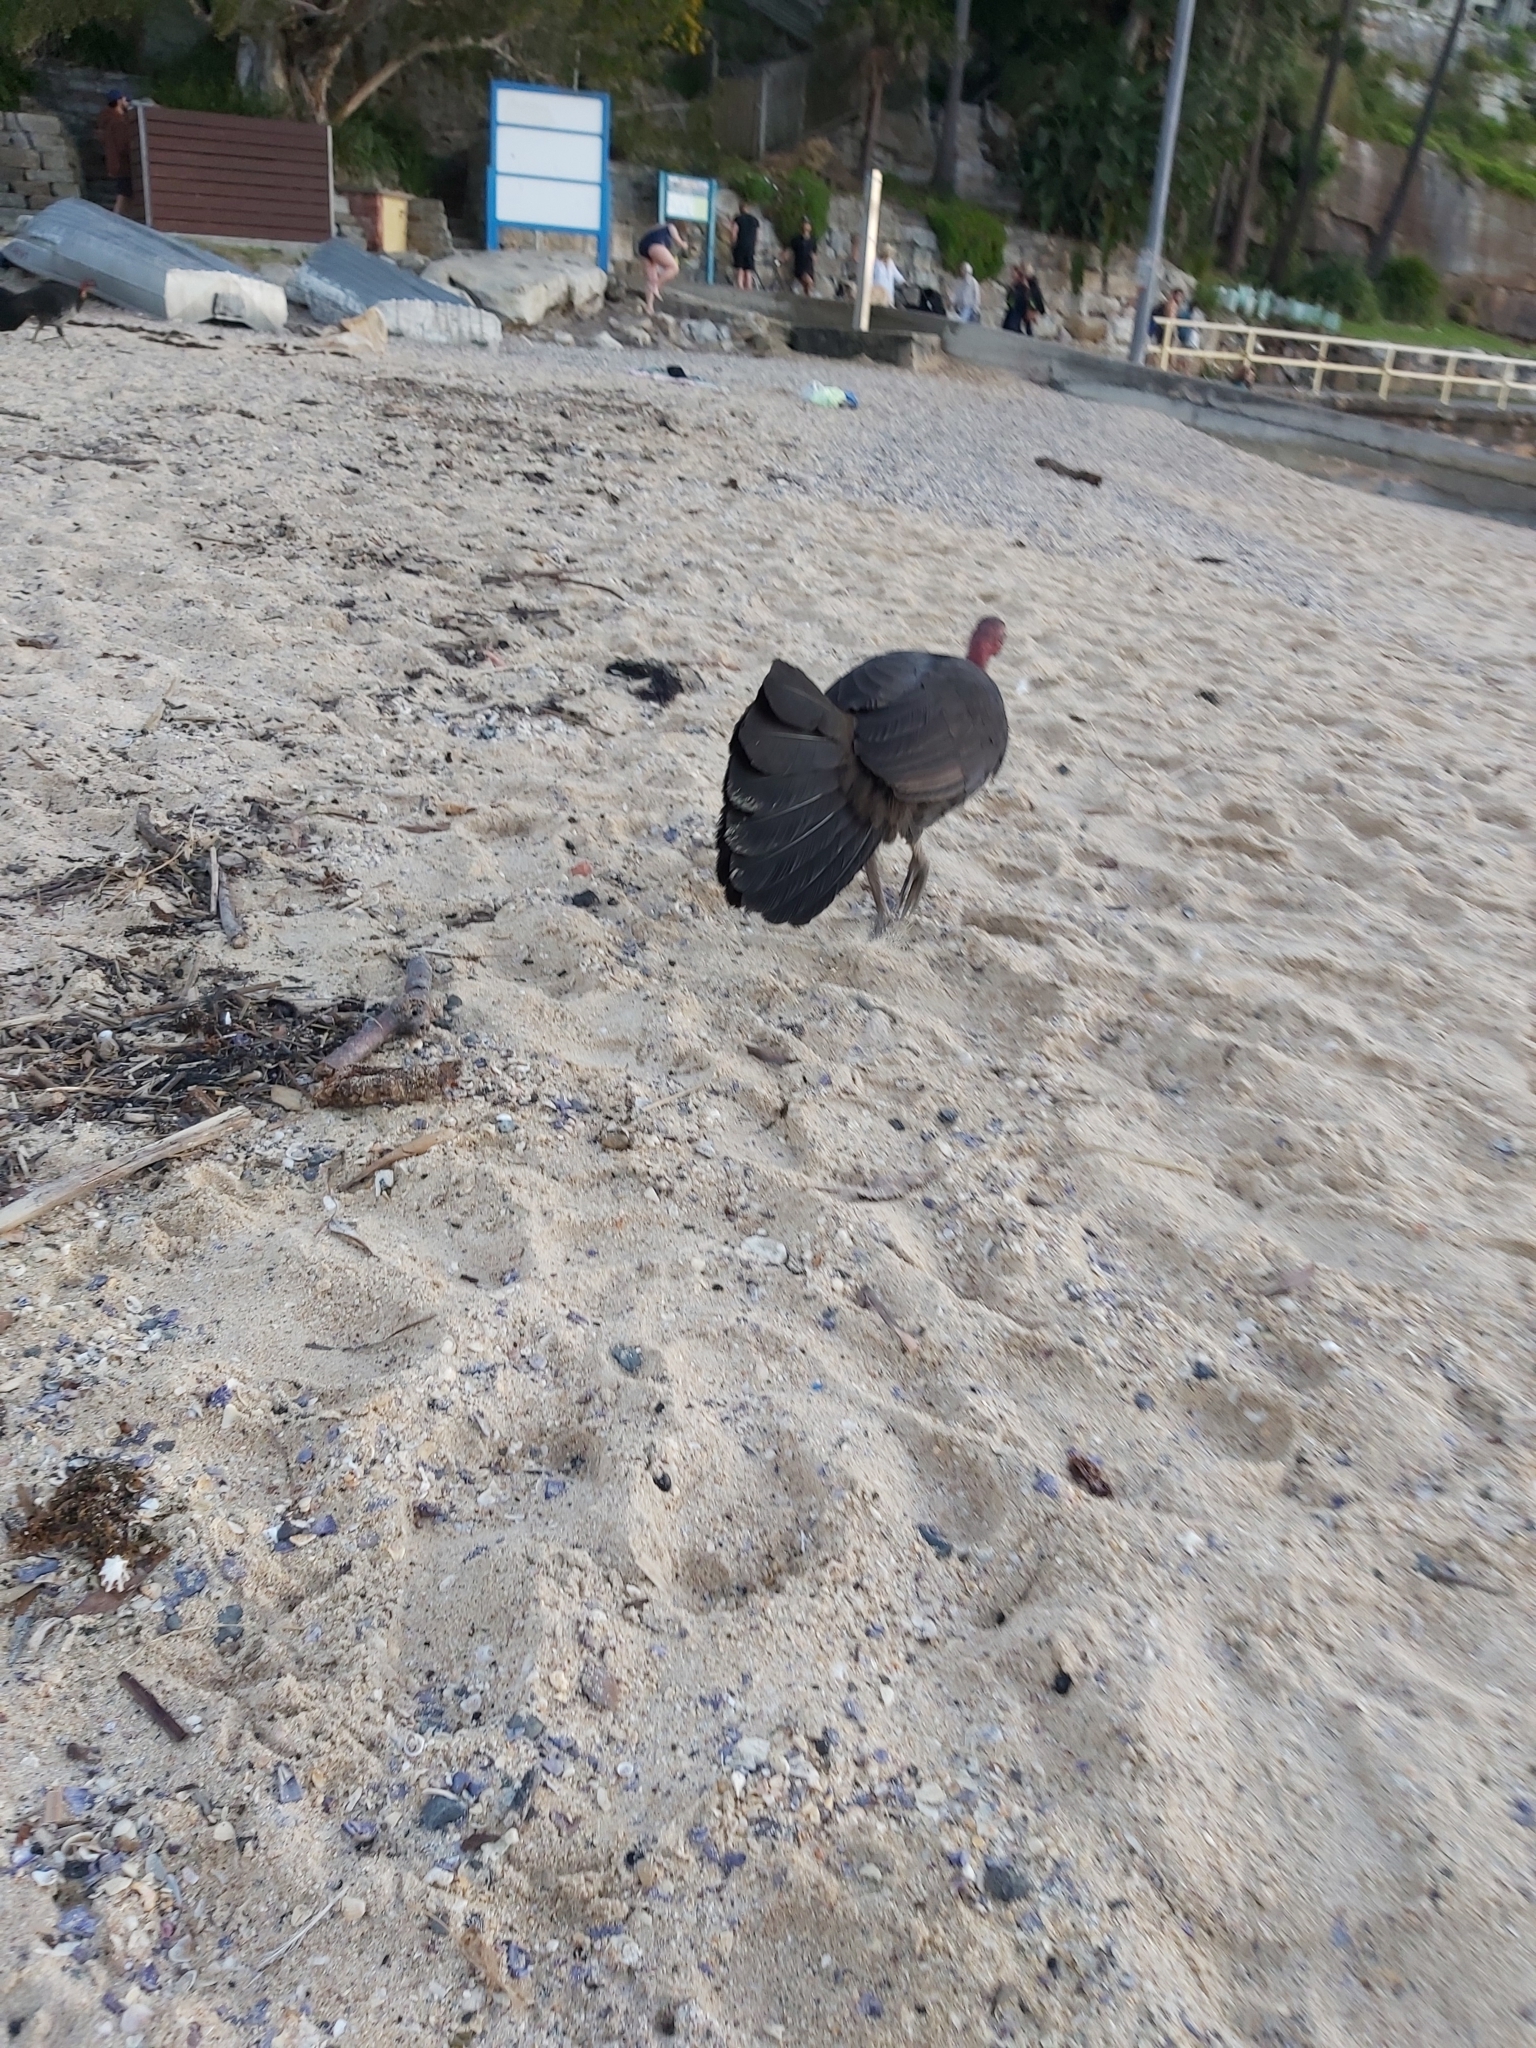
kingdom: Animalia
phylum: Chordata
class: Aves
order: Galliformes
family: Megapodiidae
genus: Alectura
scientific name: Alectura lathami
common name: Australian brushturkey
